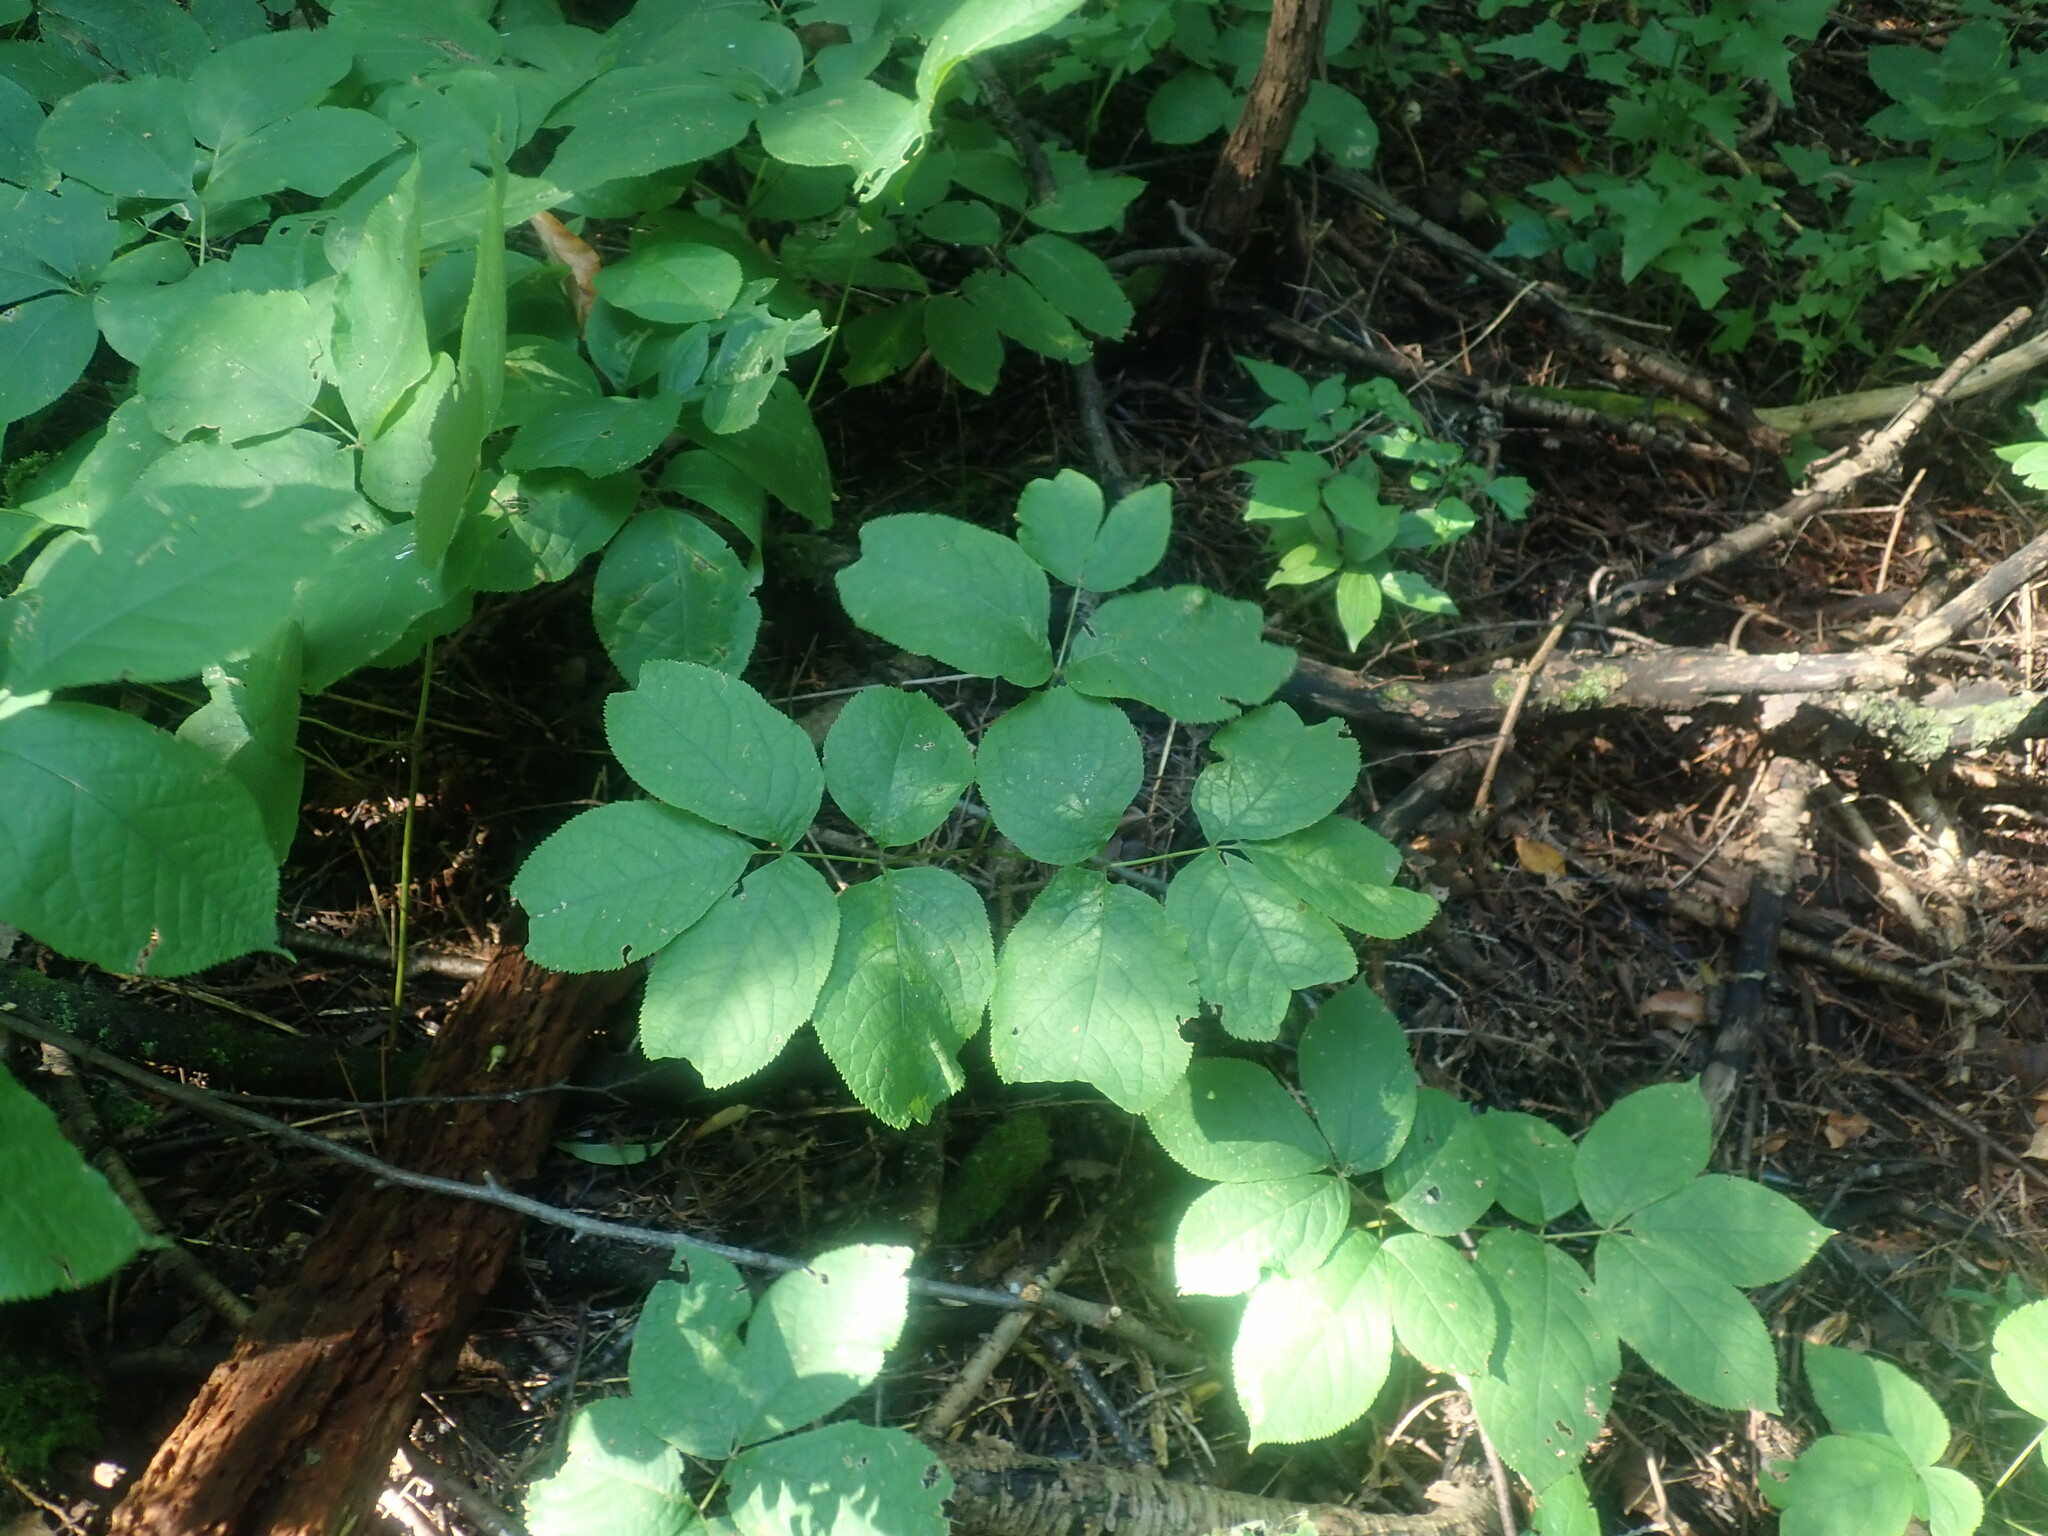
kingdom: Plantae
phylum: Tracheophyta
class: Magnoliopsida
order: Apiales
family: Araliaceae
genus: Aralia
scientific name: Aralia nudicaulis
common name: Wild sarsaparilla
